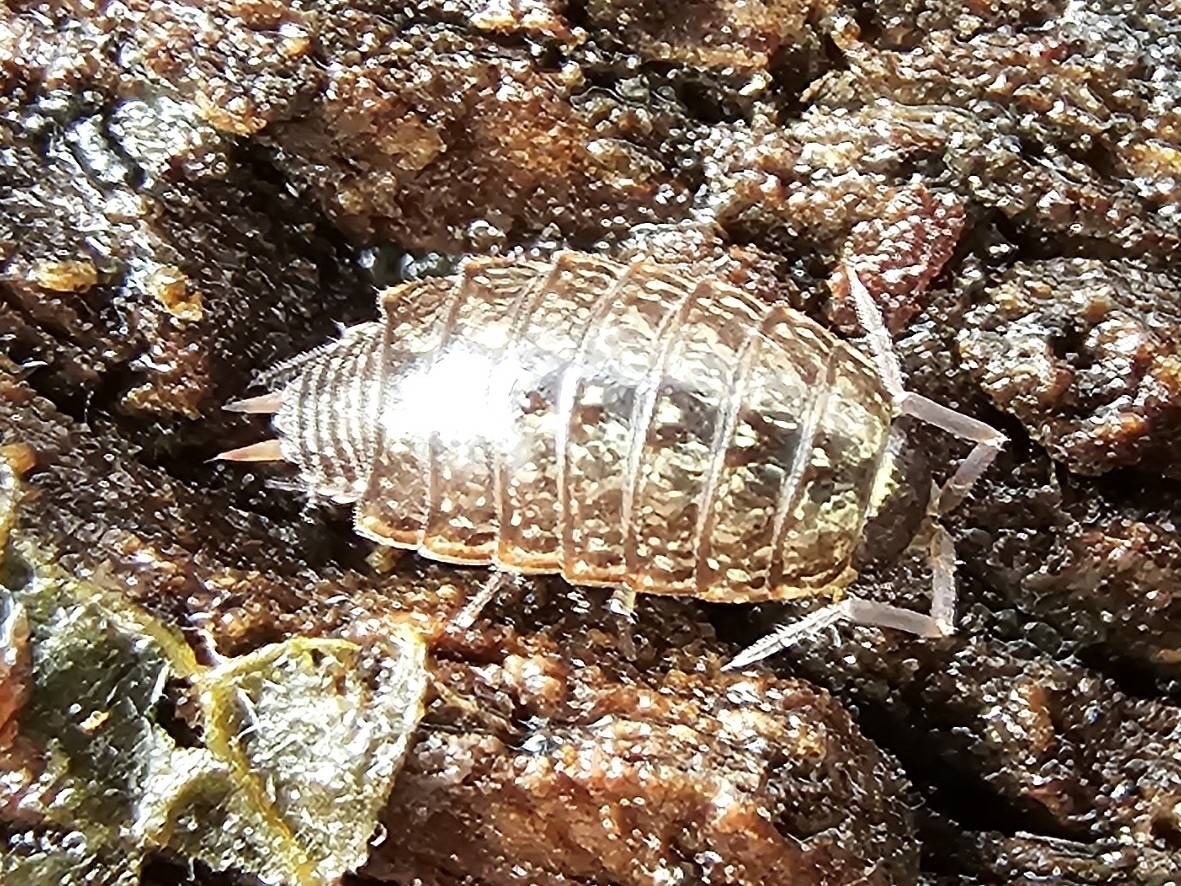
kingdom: Animalia
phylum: Arthropoda
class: Malacostraca
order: Isopoda
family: Philosciidae
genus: Philoscia
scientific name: Philoscia muscorum
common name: Common striped woodlouse
